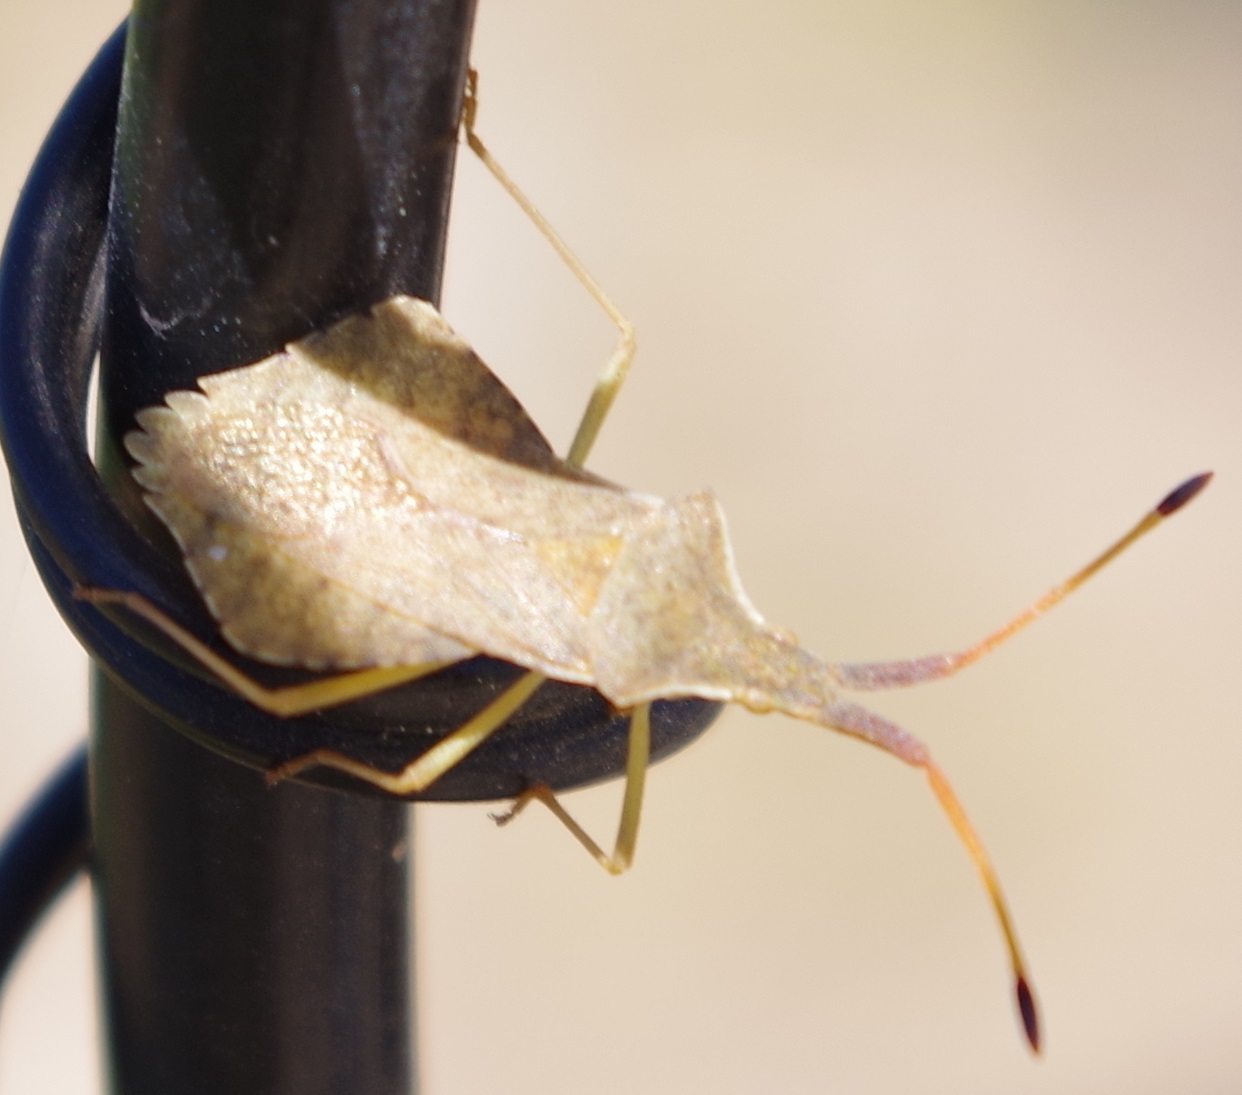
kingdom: Animalia
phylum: Arthropoda
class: Insecta
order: Hemiptera
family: Coreidae
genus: Syromastus
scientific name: Syromastus rhombeus
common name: Rhombic leatherbug
